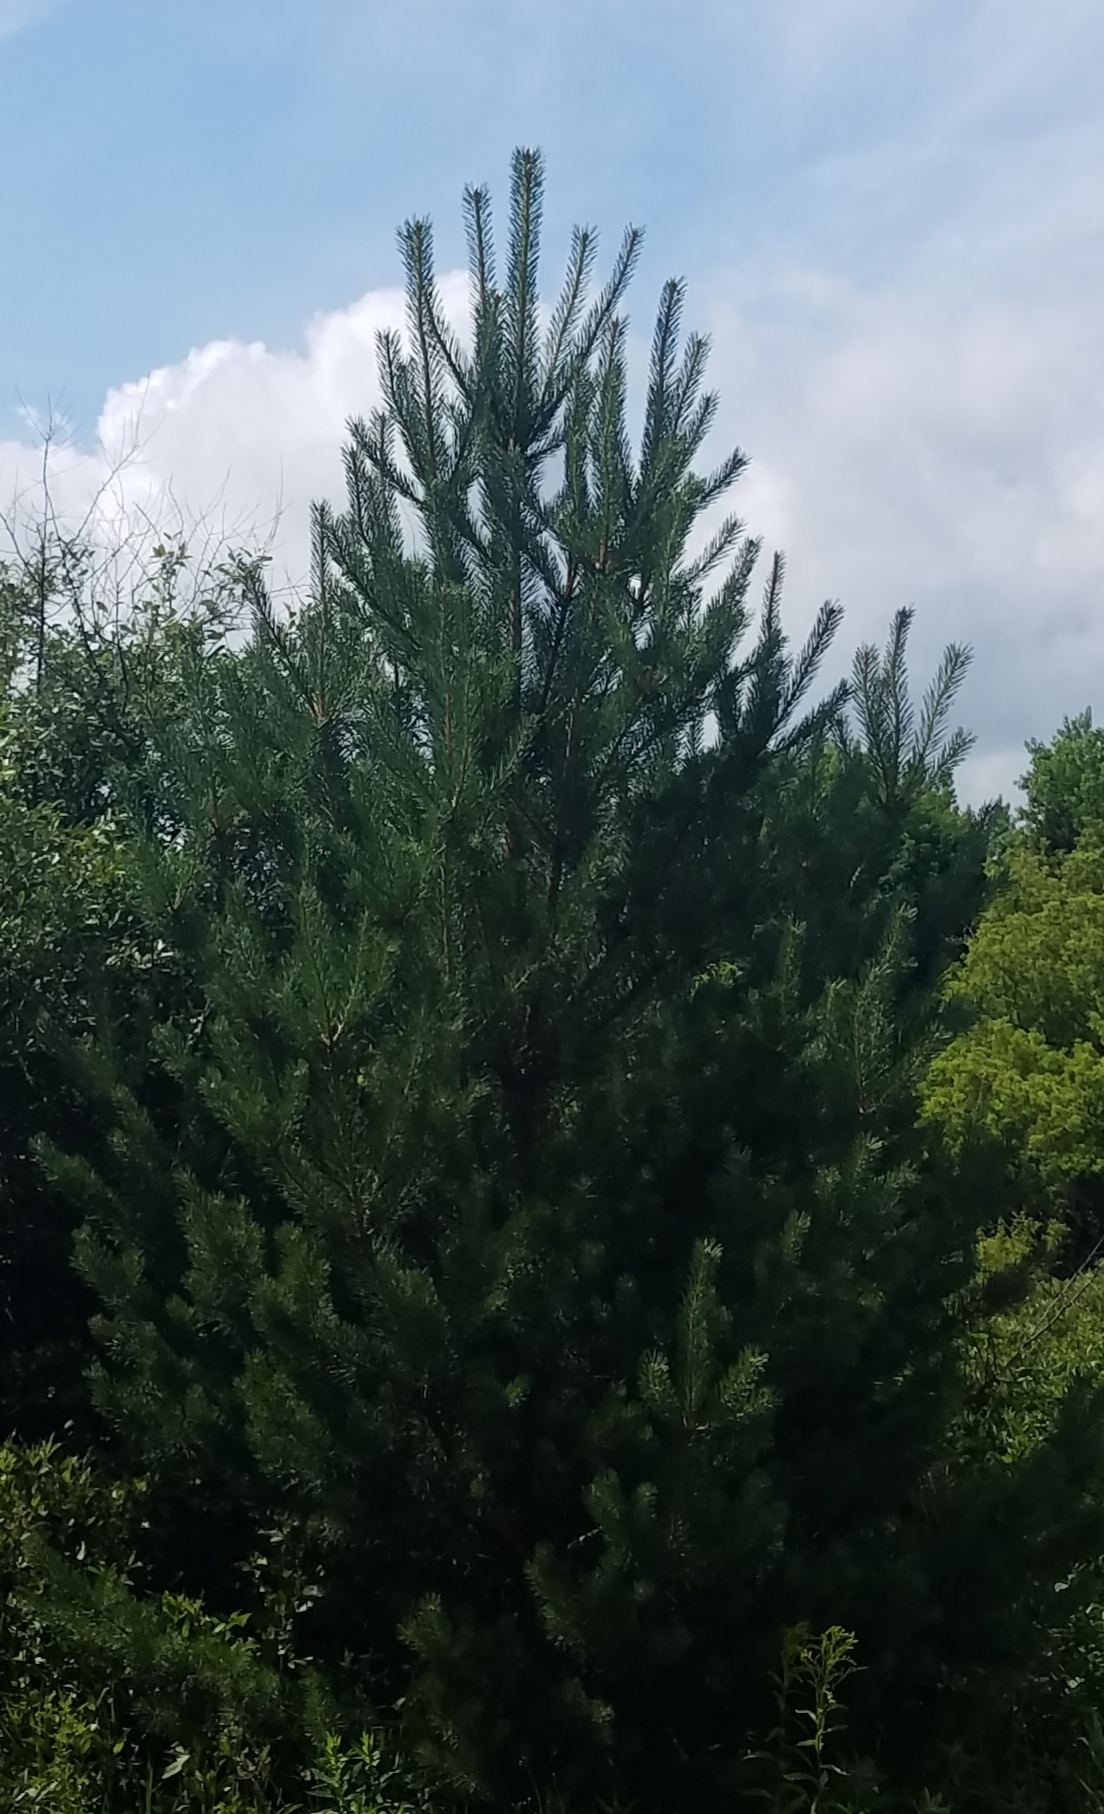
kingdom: Plantae
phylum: Tracheophyta
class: Pinopsida
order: Pinales
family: Pinaceae
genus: Pinus
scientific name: Pinus resinosa
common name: Norway pine
